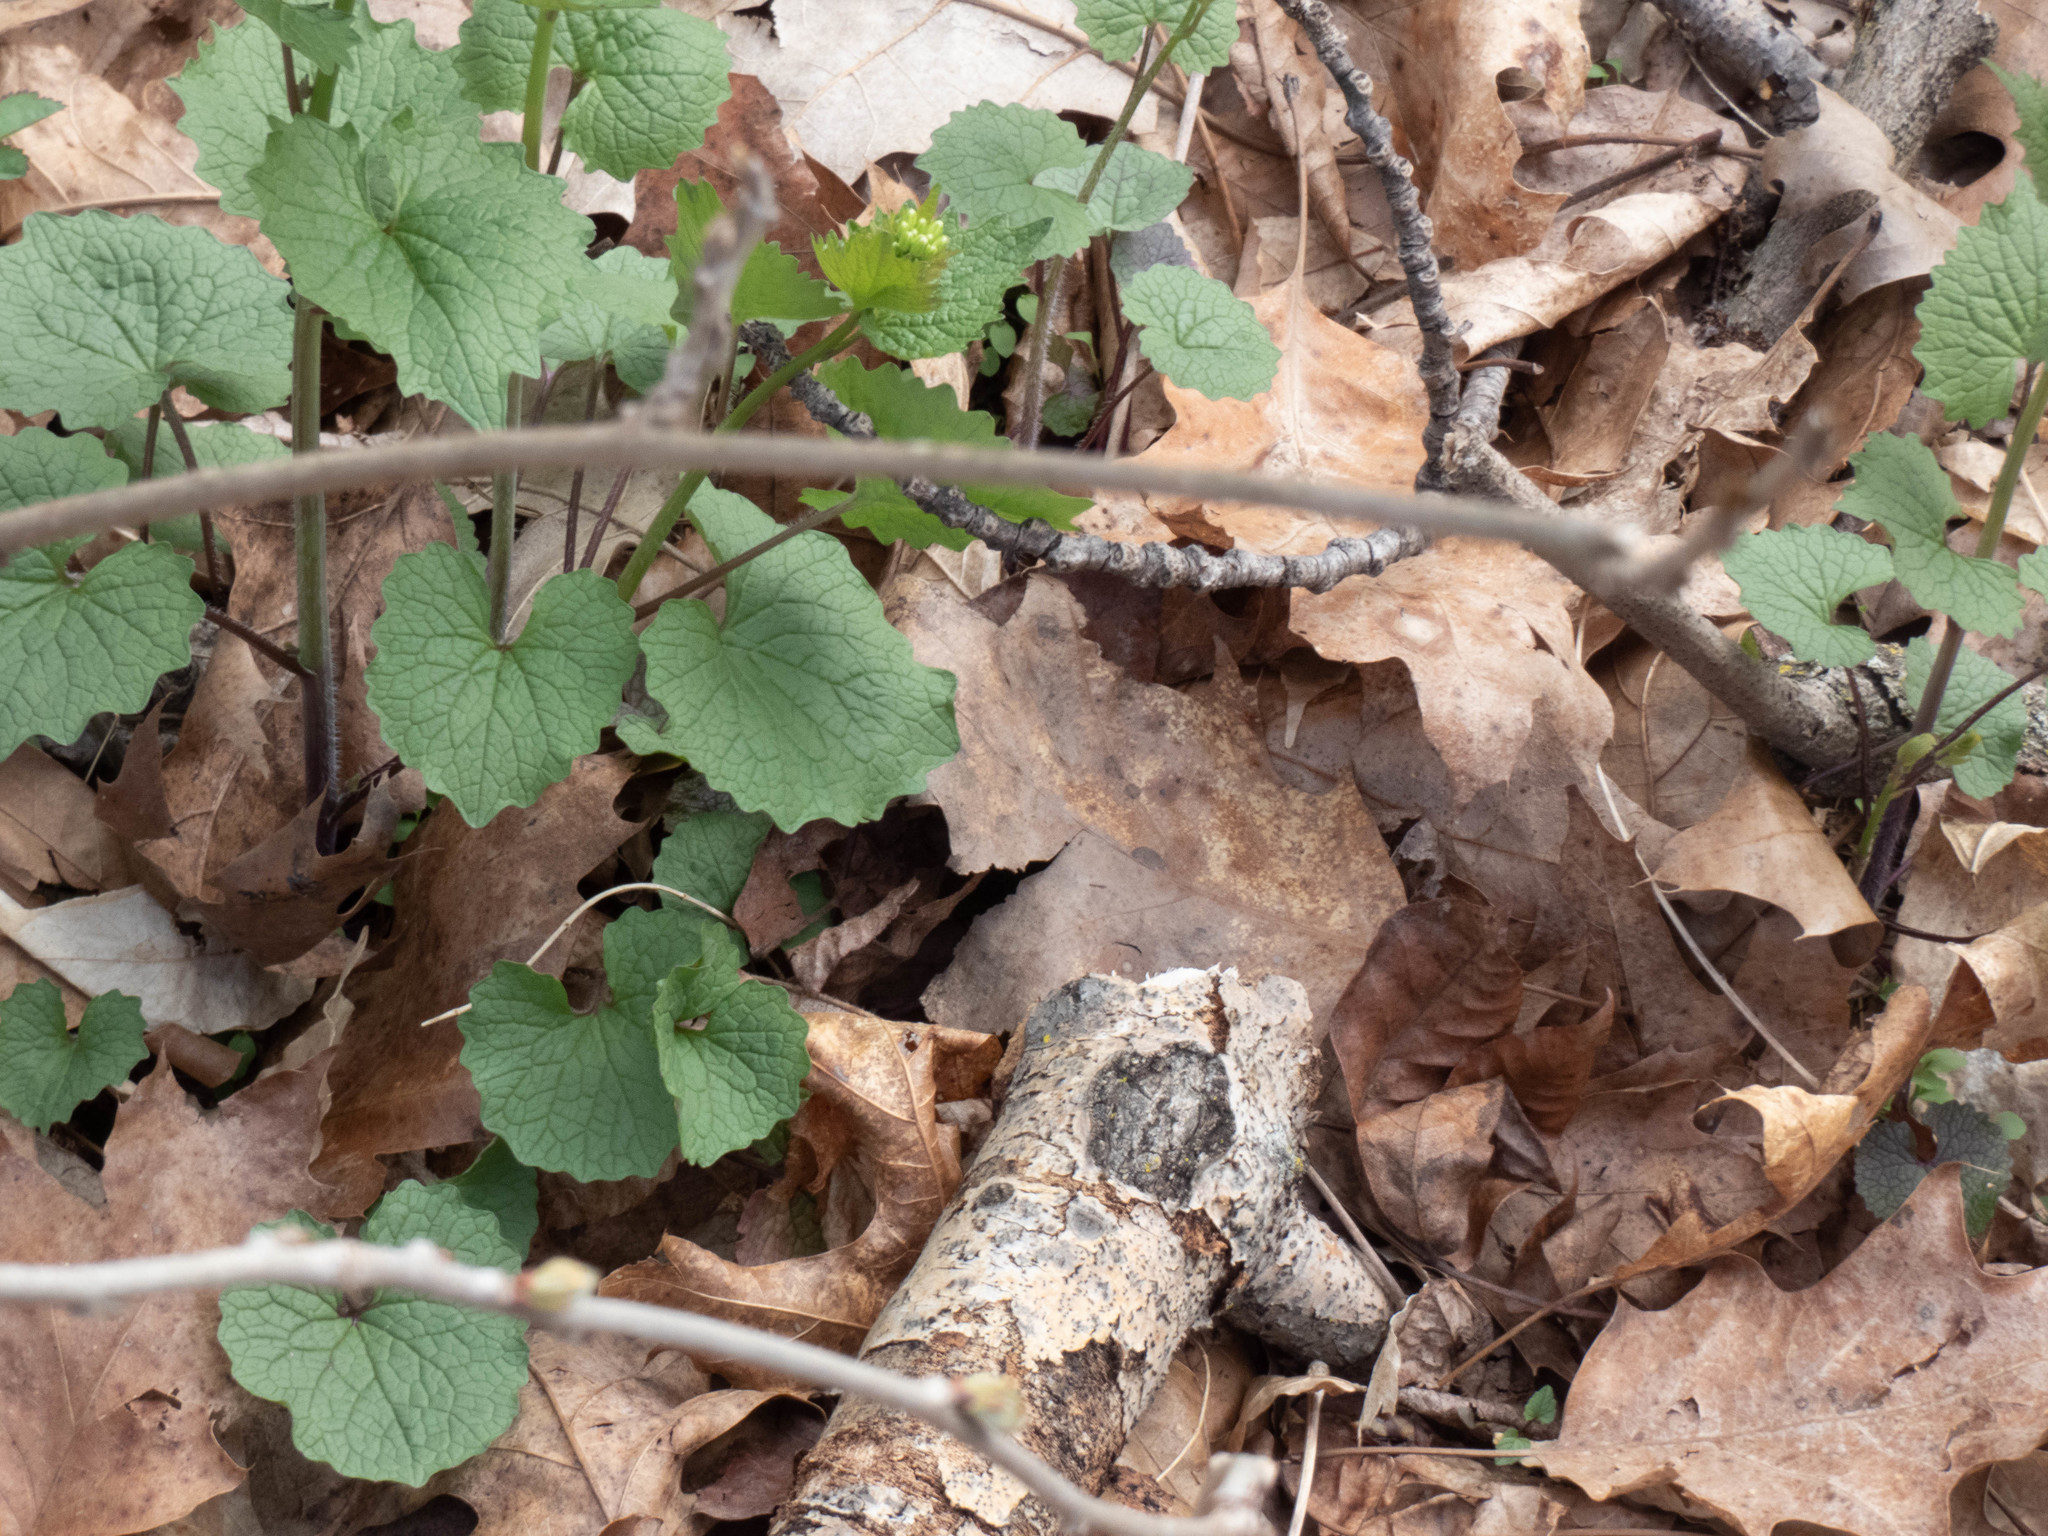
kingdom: Plantae
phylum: Tracheophyta
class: Magnoliopsida
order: Brassicales
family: Brassicaceae
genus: Alliaria
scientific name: Alliaria petiolata
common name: Garlic mustard
